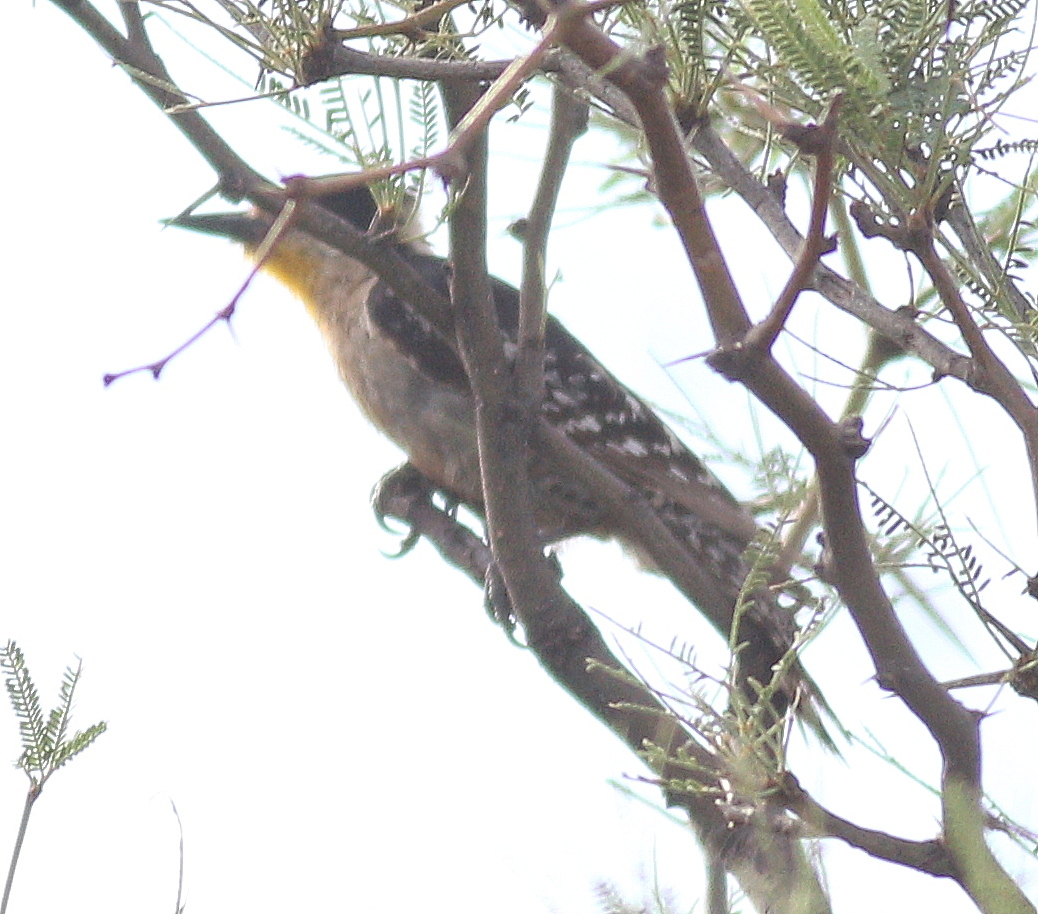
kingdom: Animalia
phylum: Chordata
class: Aves
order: Piciformes
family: Picidae
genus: Melanerpes
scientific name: Melanerpes cactorum
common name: White-fronted woodpecker
